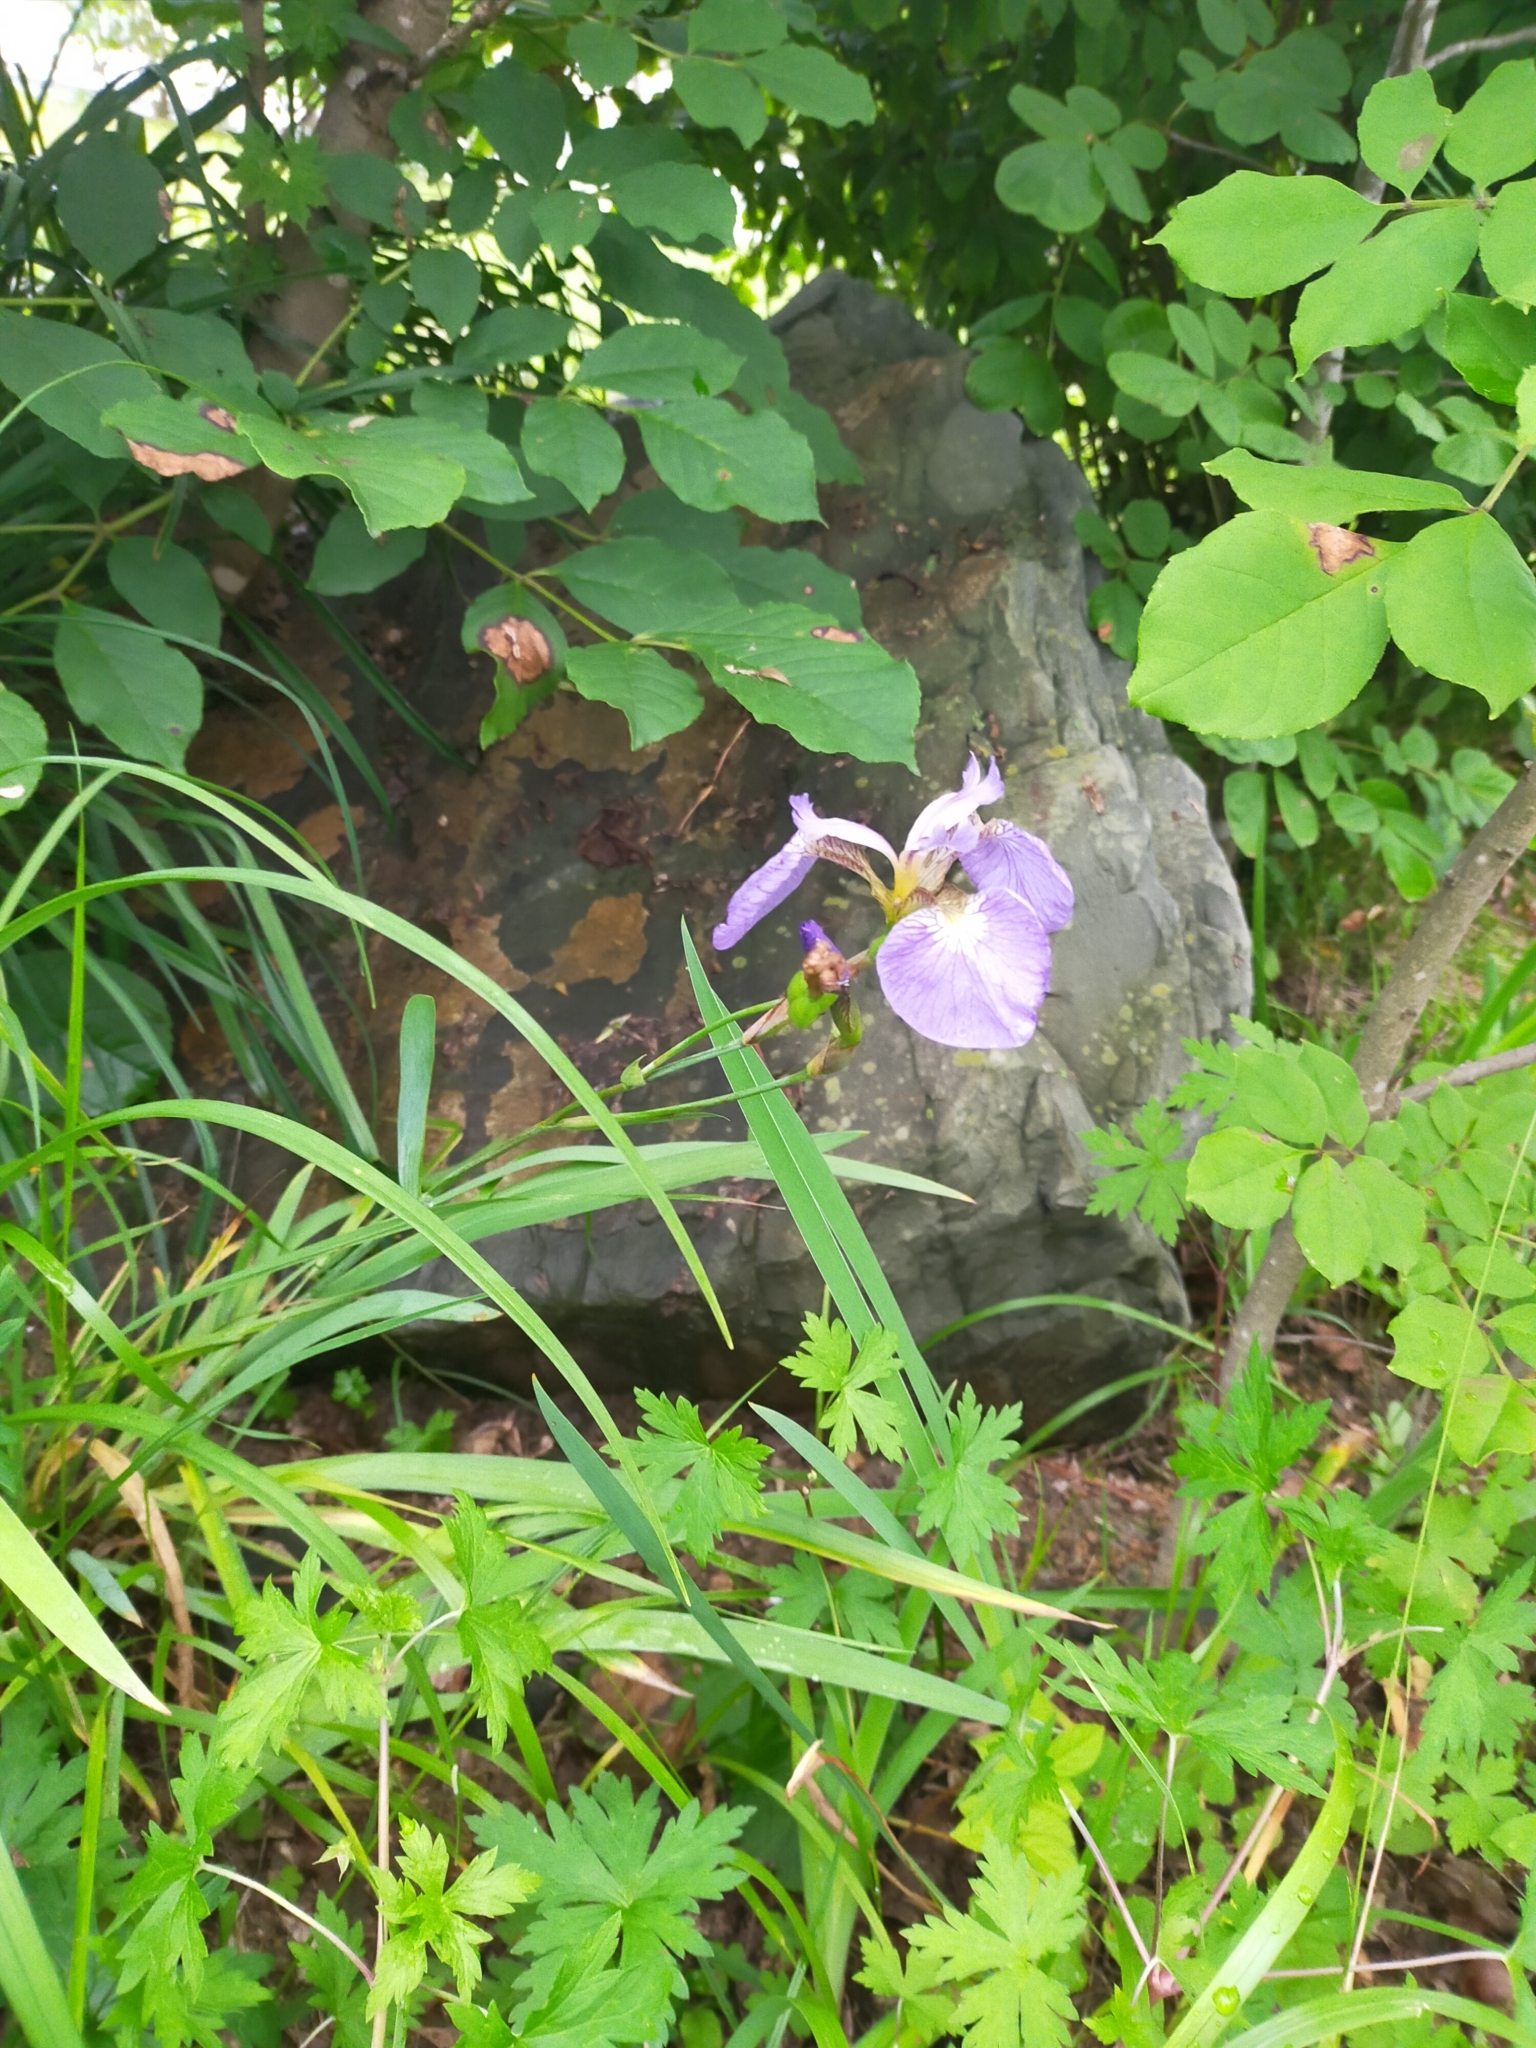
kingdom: Plantae
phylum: Tracheophyta
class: Liliopsida
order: Asparagales
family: Iridaceae
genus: Iris
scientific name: Iris setosa
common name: Arctic blue flag
